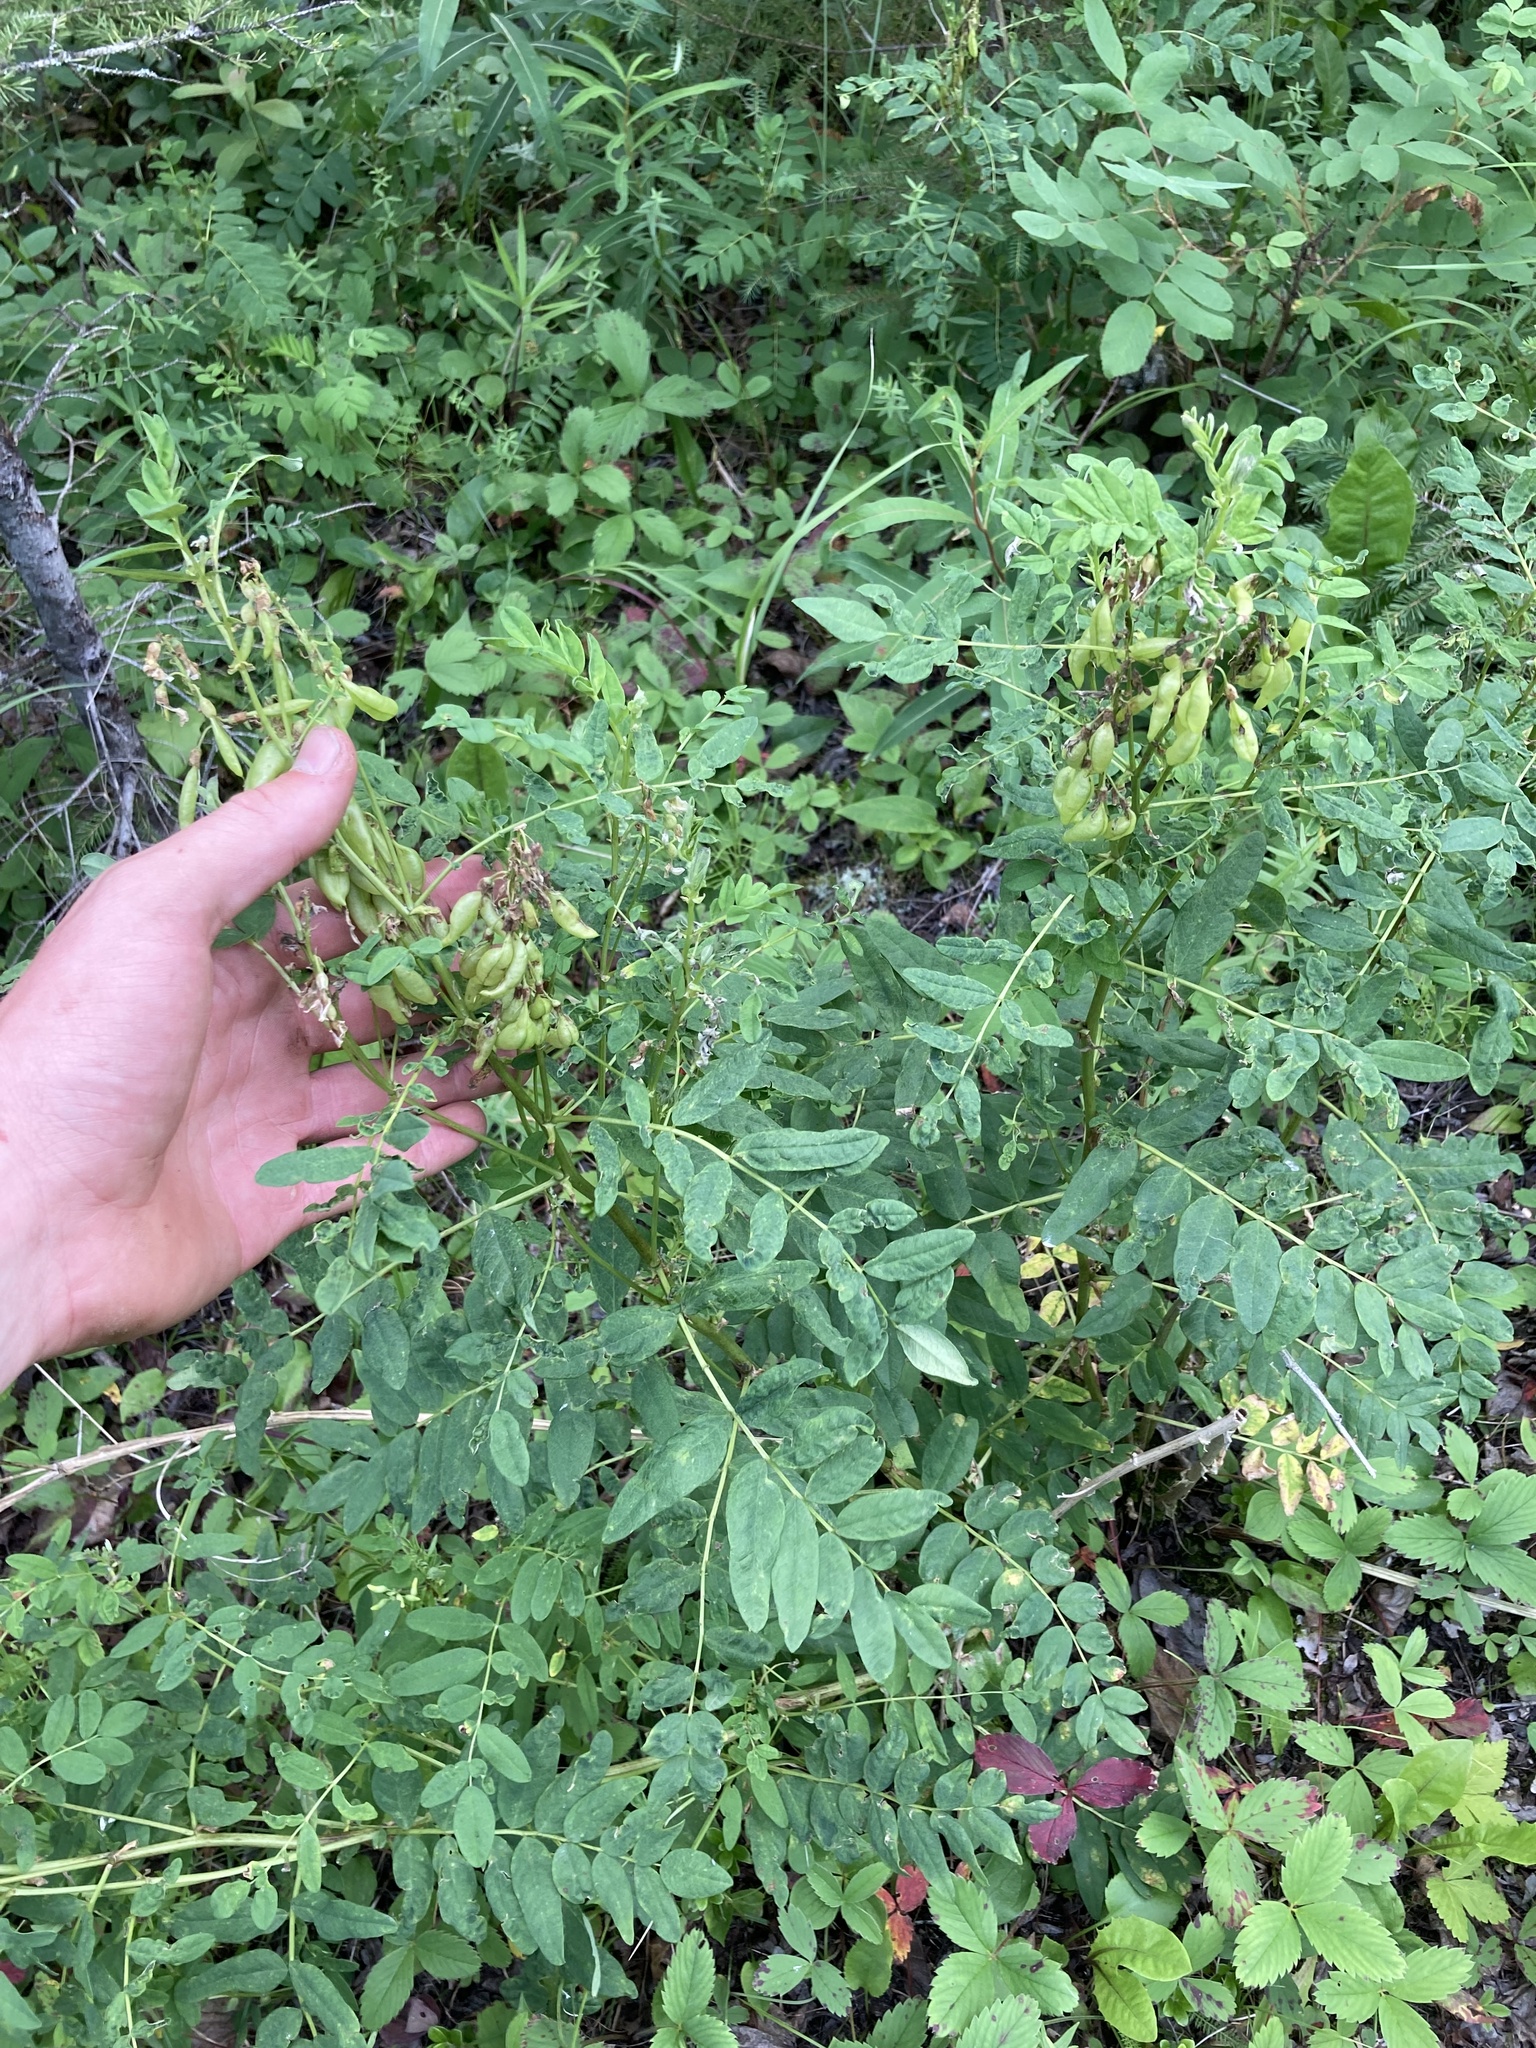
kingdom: Plantae
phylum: Tracheophyta
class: Magnoliopsida
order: Fabales
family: Fabaceae
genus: Astragalus
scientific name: Astragalus americanus
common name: American milk-vetch
